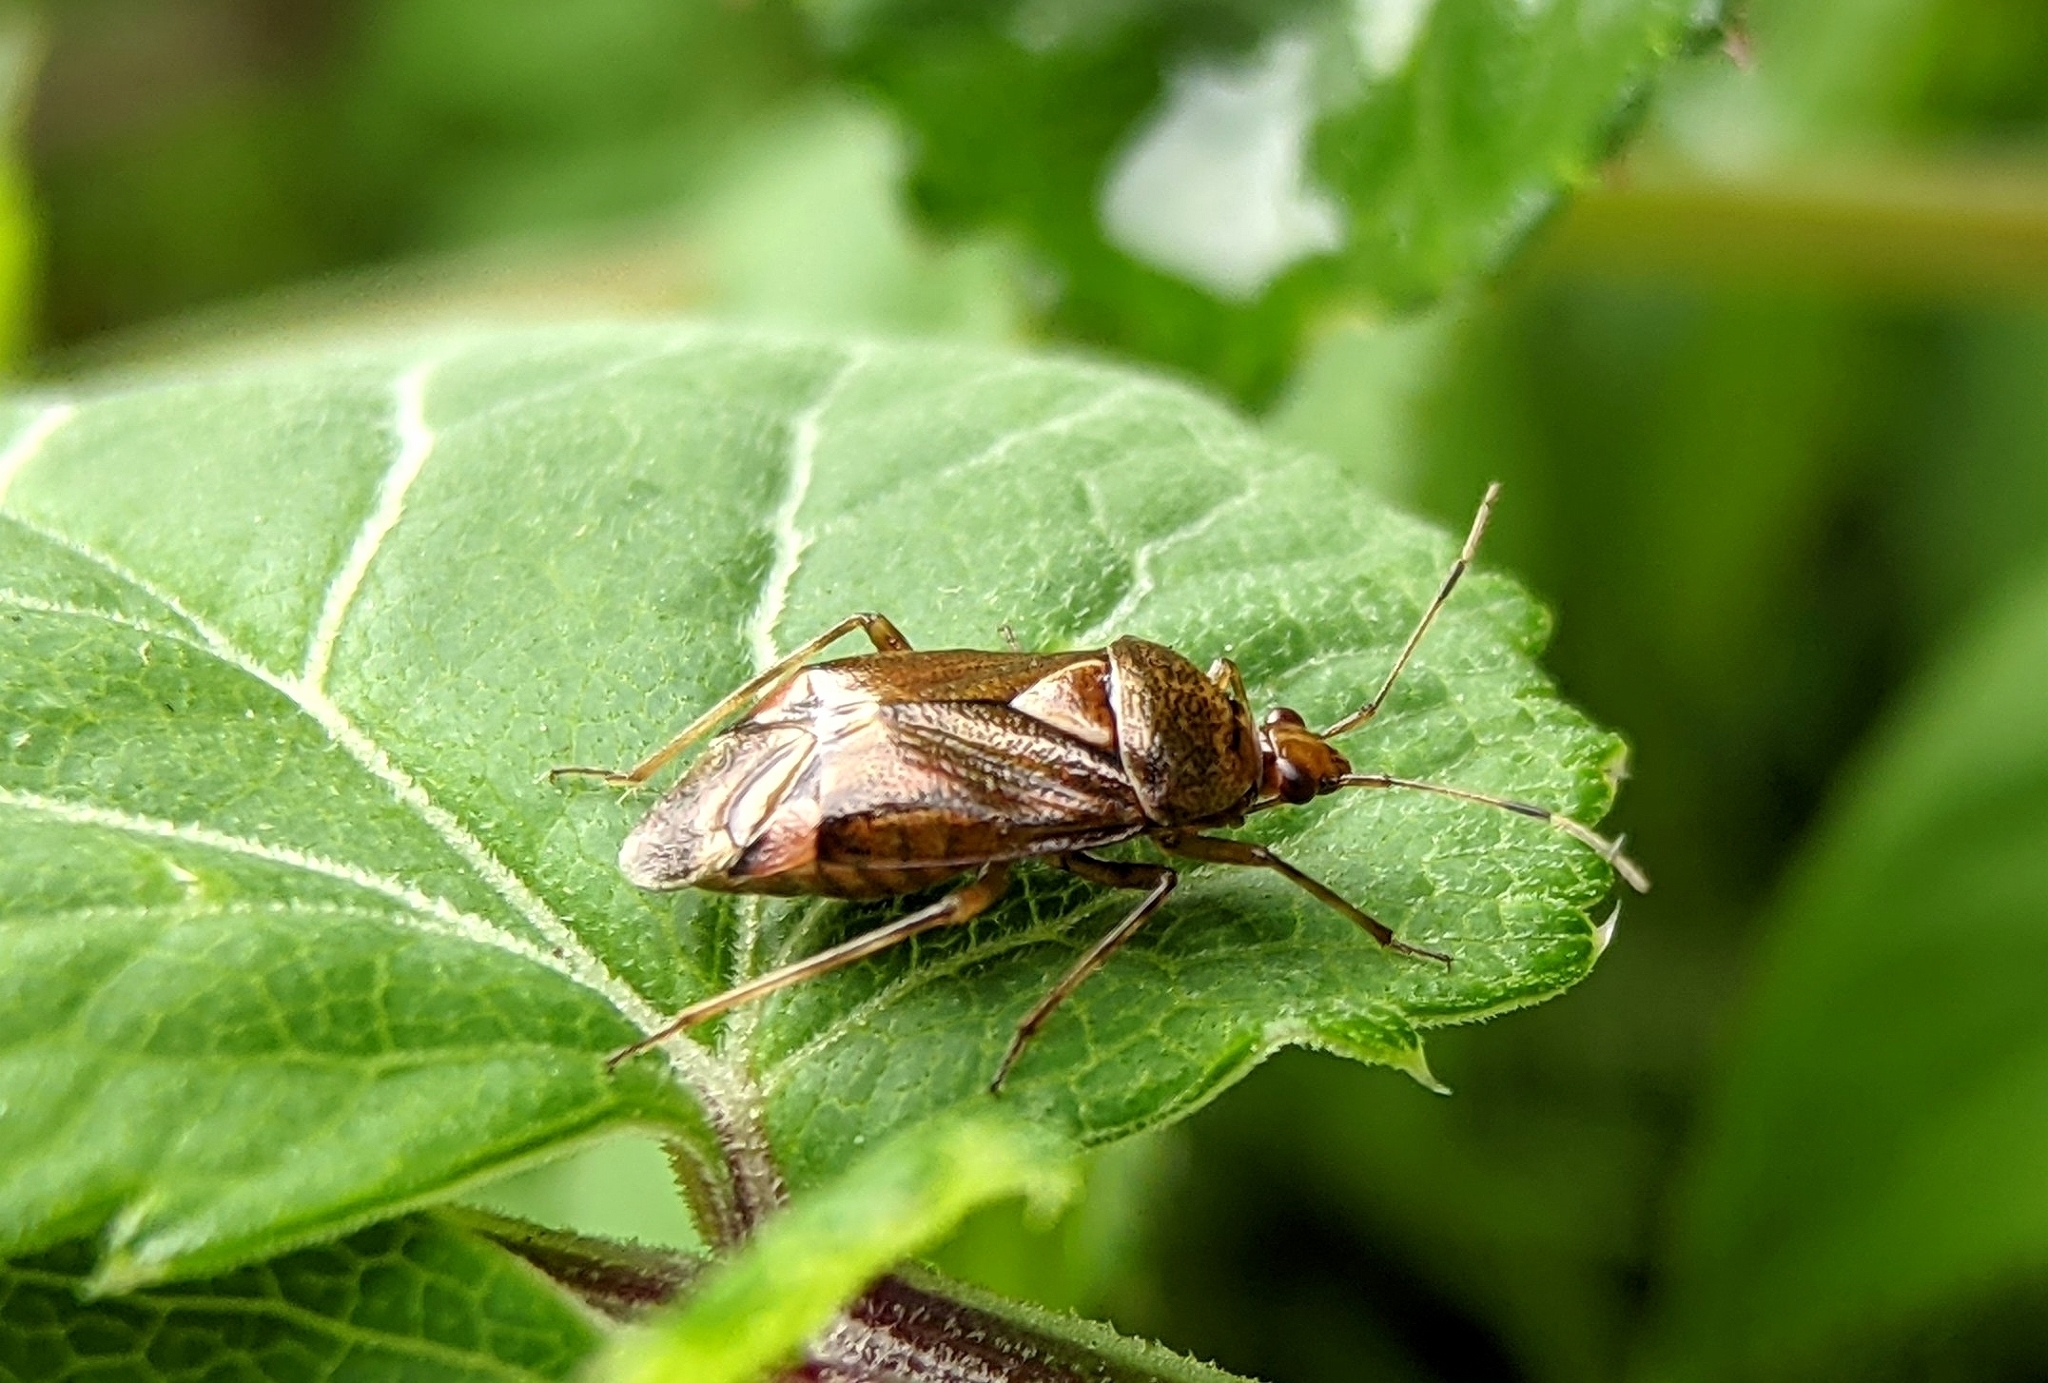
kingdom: Animalia
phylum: Arthropoda
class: Insecta
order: Hemiptera
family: Miridae
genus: Deraeocoris
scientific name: Deraeocoris flavilinea
